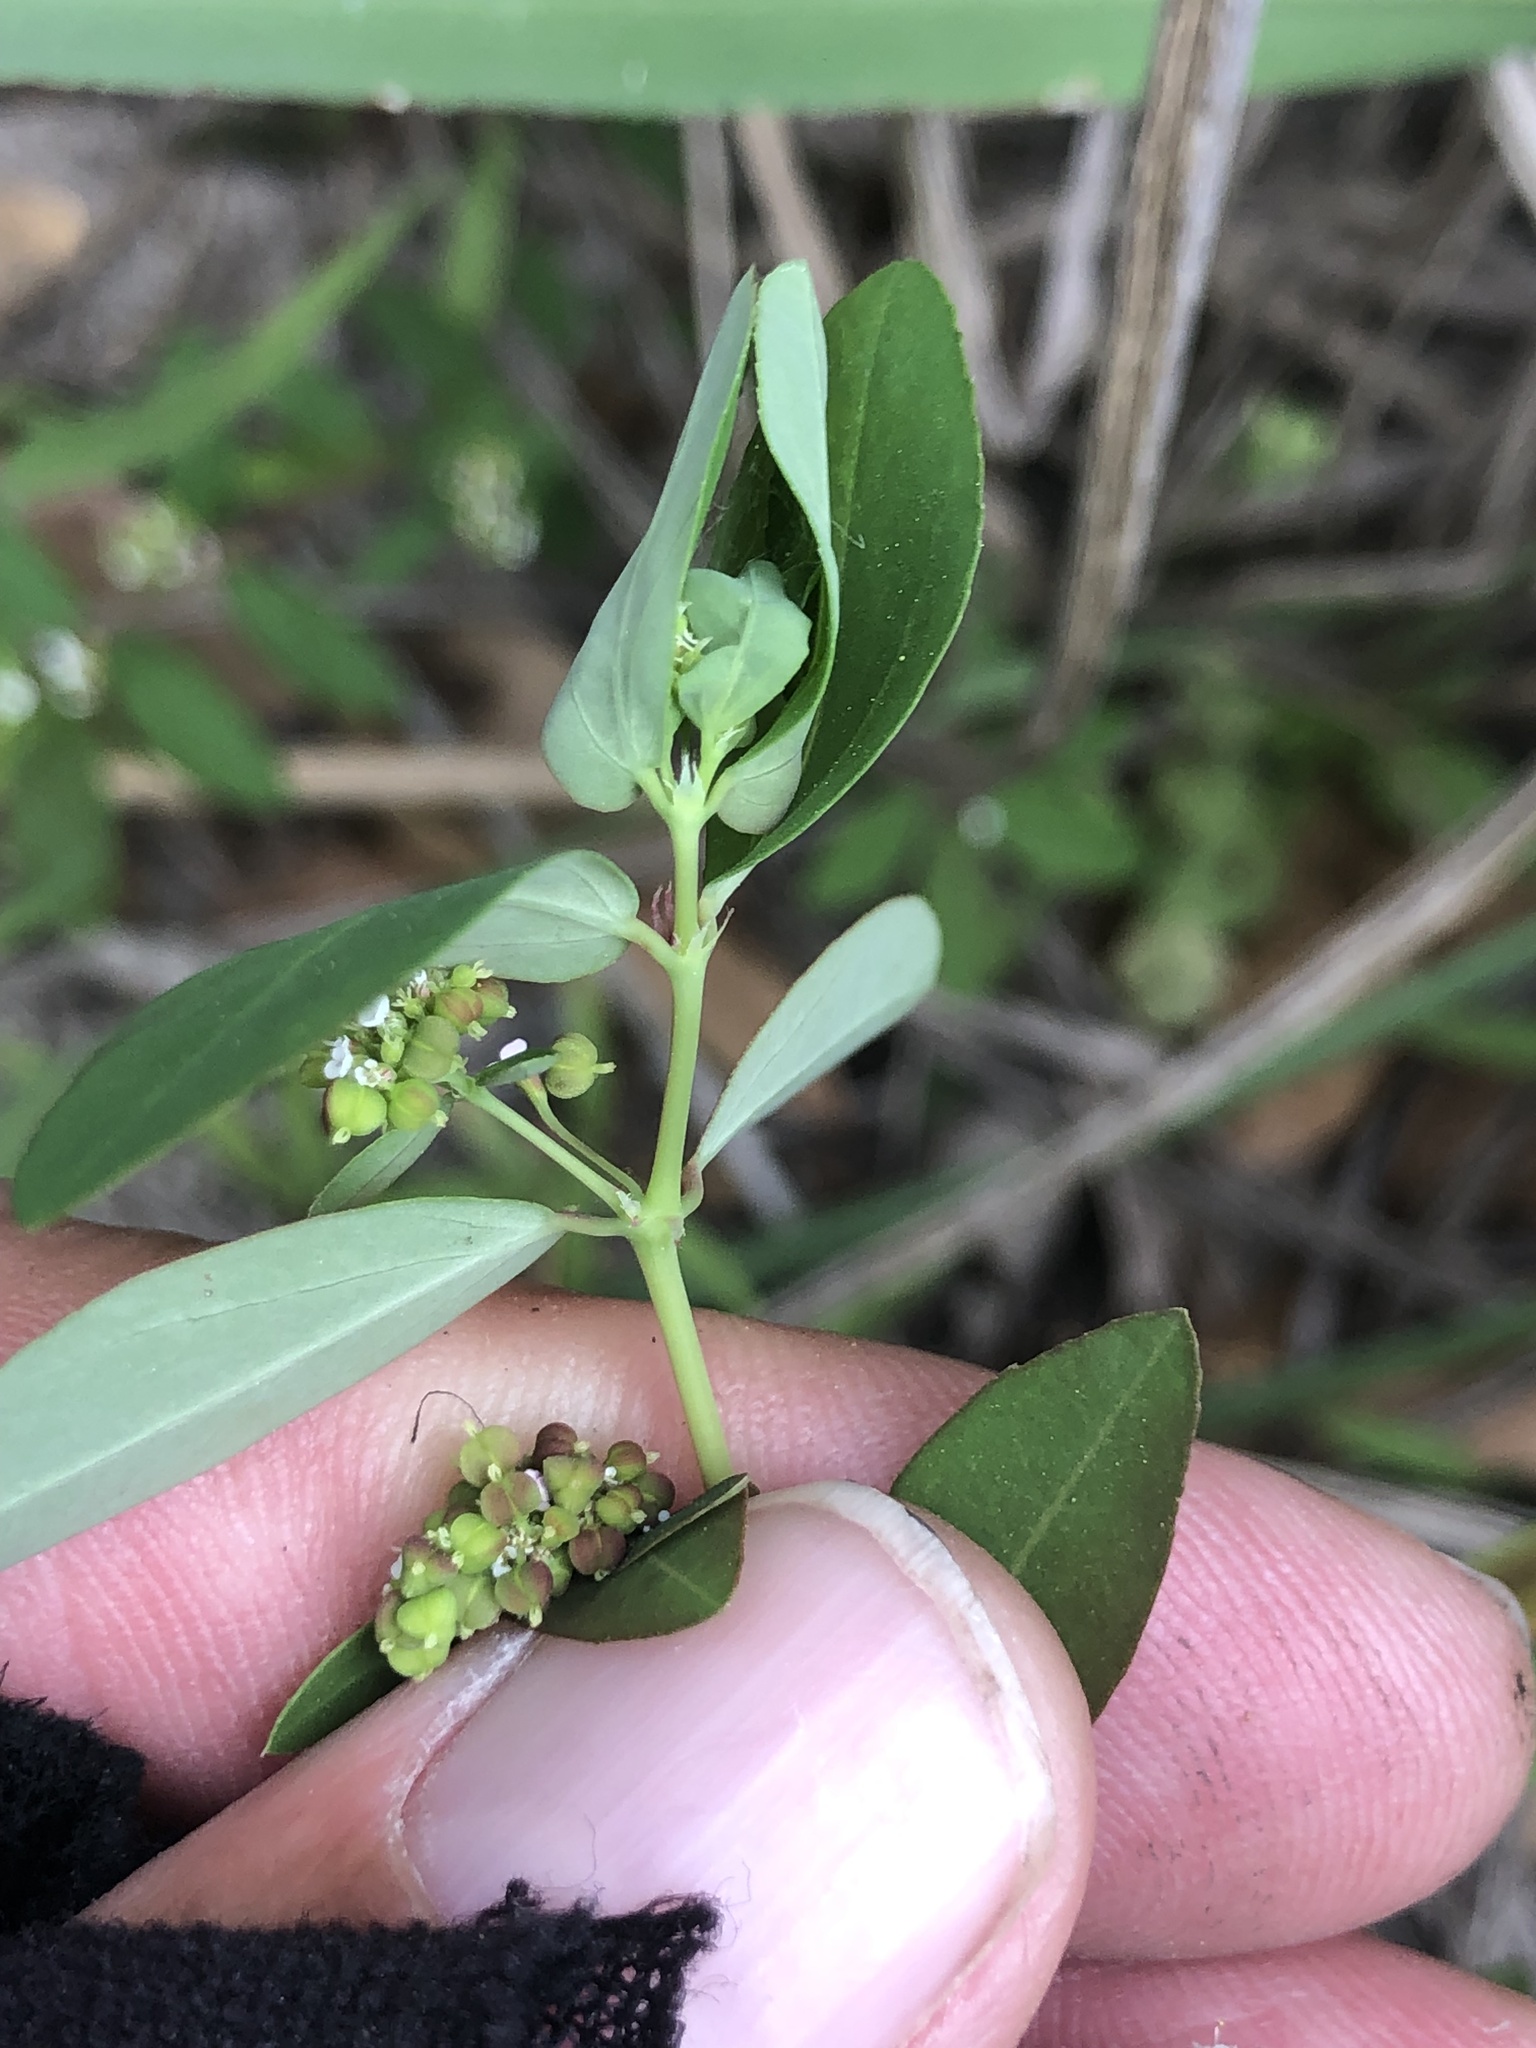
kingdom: Plantae
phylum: Tracheophyta
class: Magnoliopsida
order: Malpighiales
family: Euphorbiaceae
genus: Euphorbia
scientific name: Euphorbia hypericifolia
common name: Graceful sandmat
